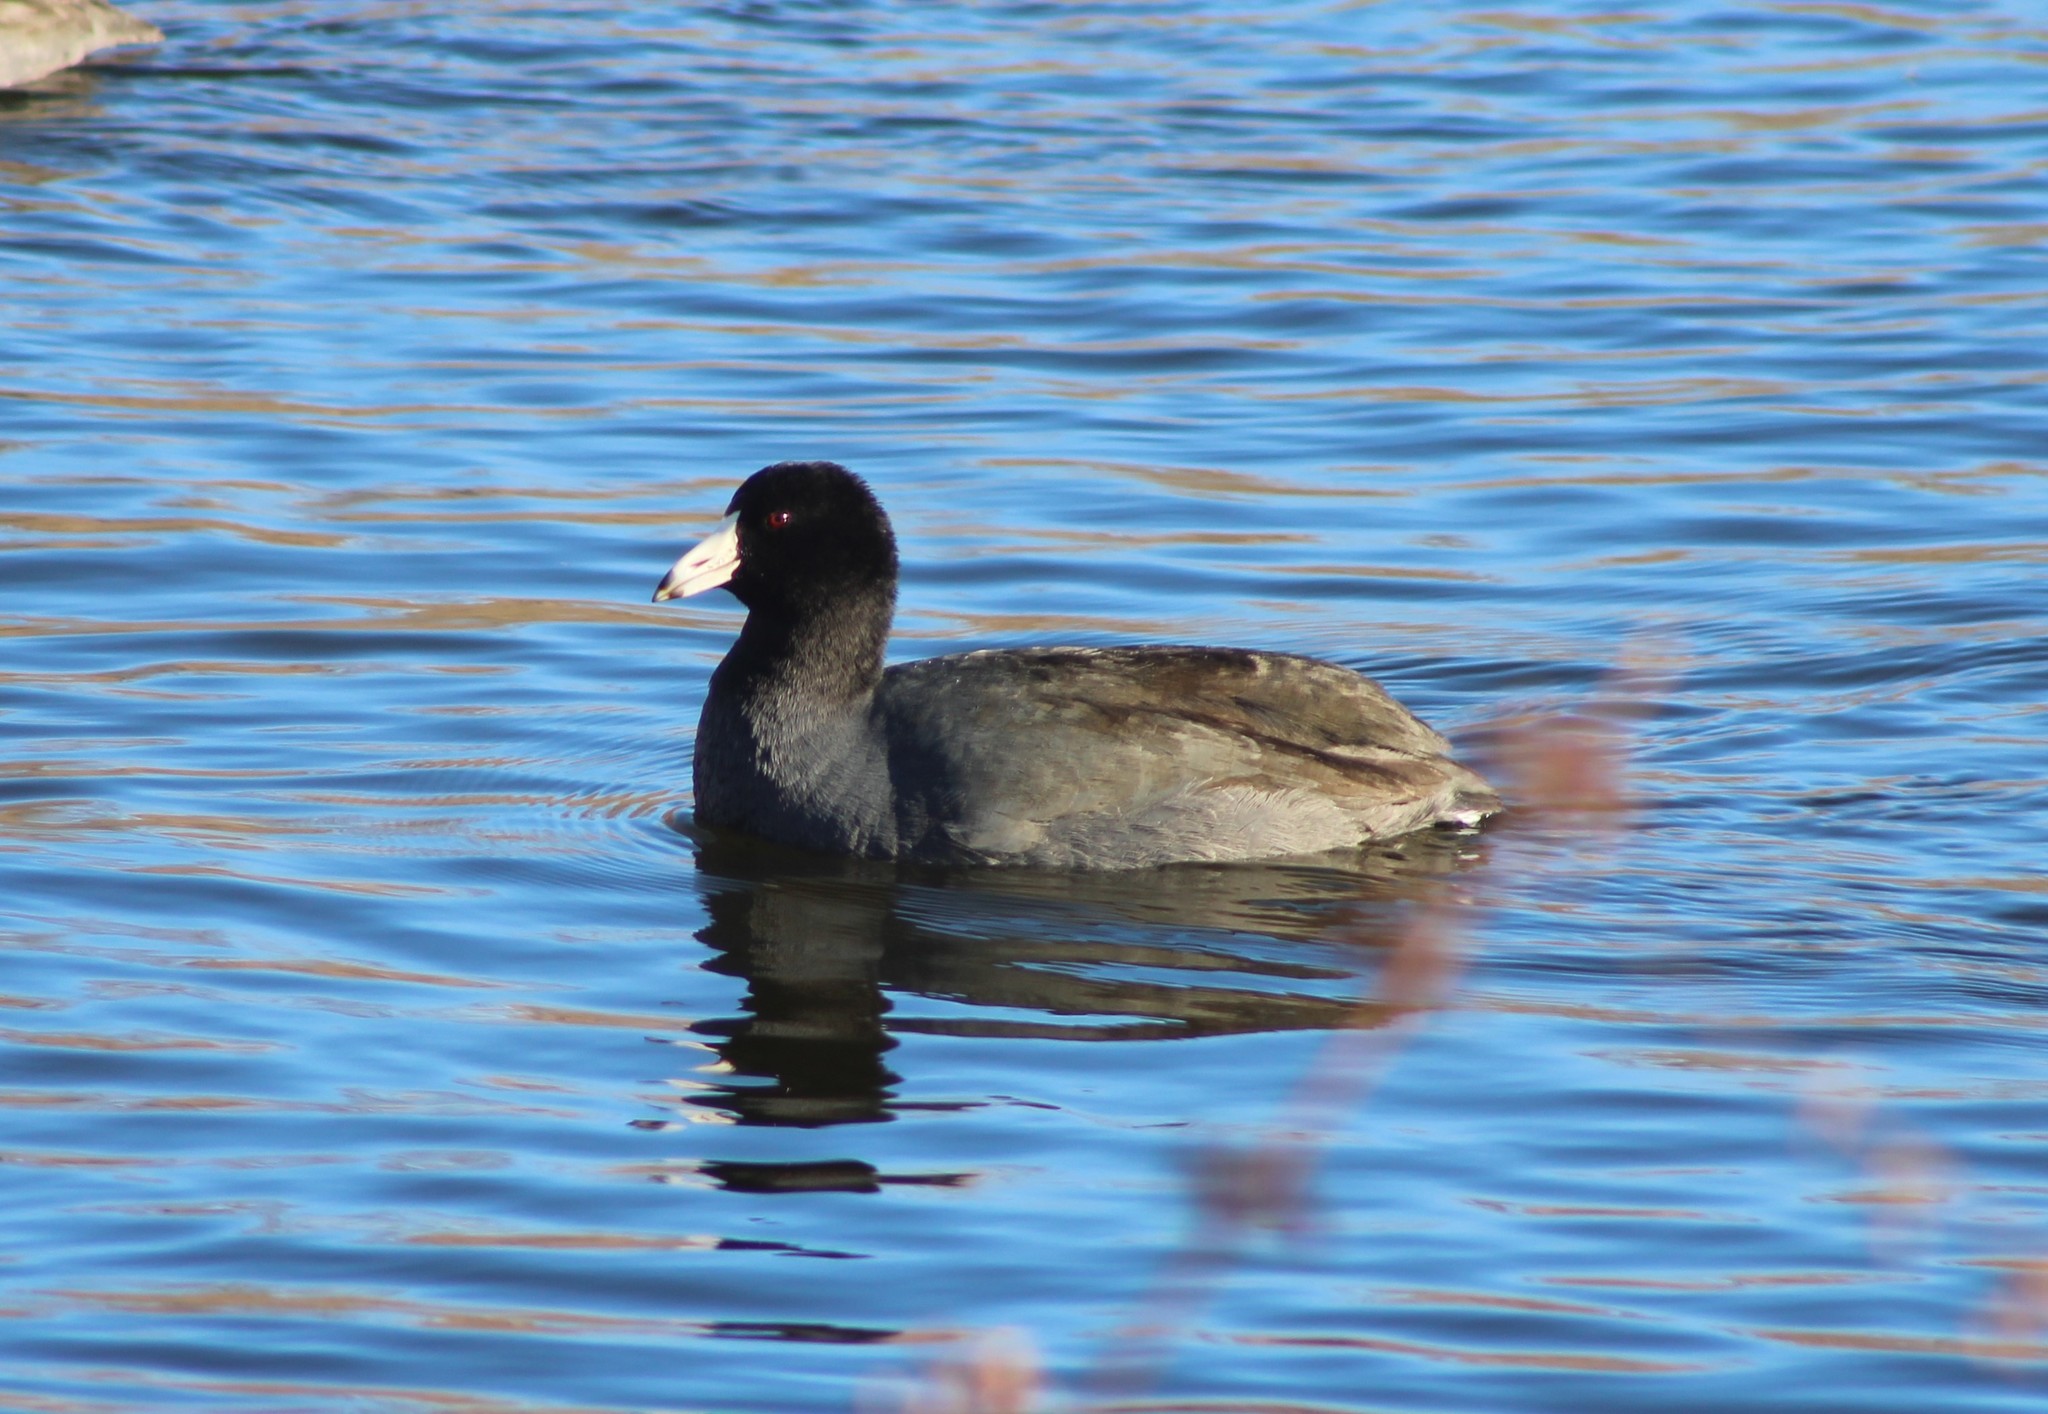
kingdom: Animalia
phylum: Chordata
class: Aves
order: Gruiformes
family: Rallidae
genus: Fulica
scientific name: Fulica americana
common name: American coot
